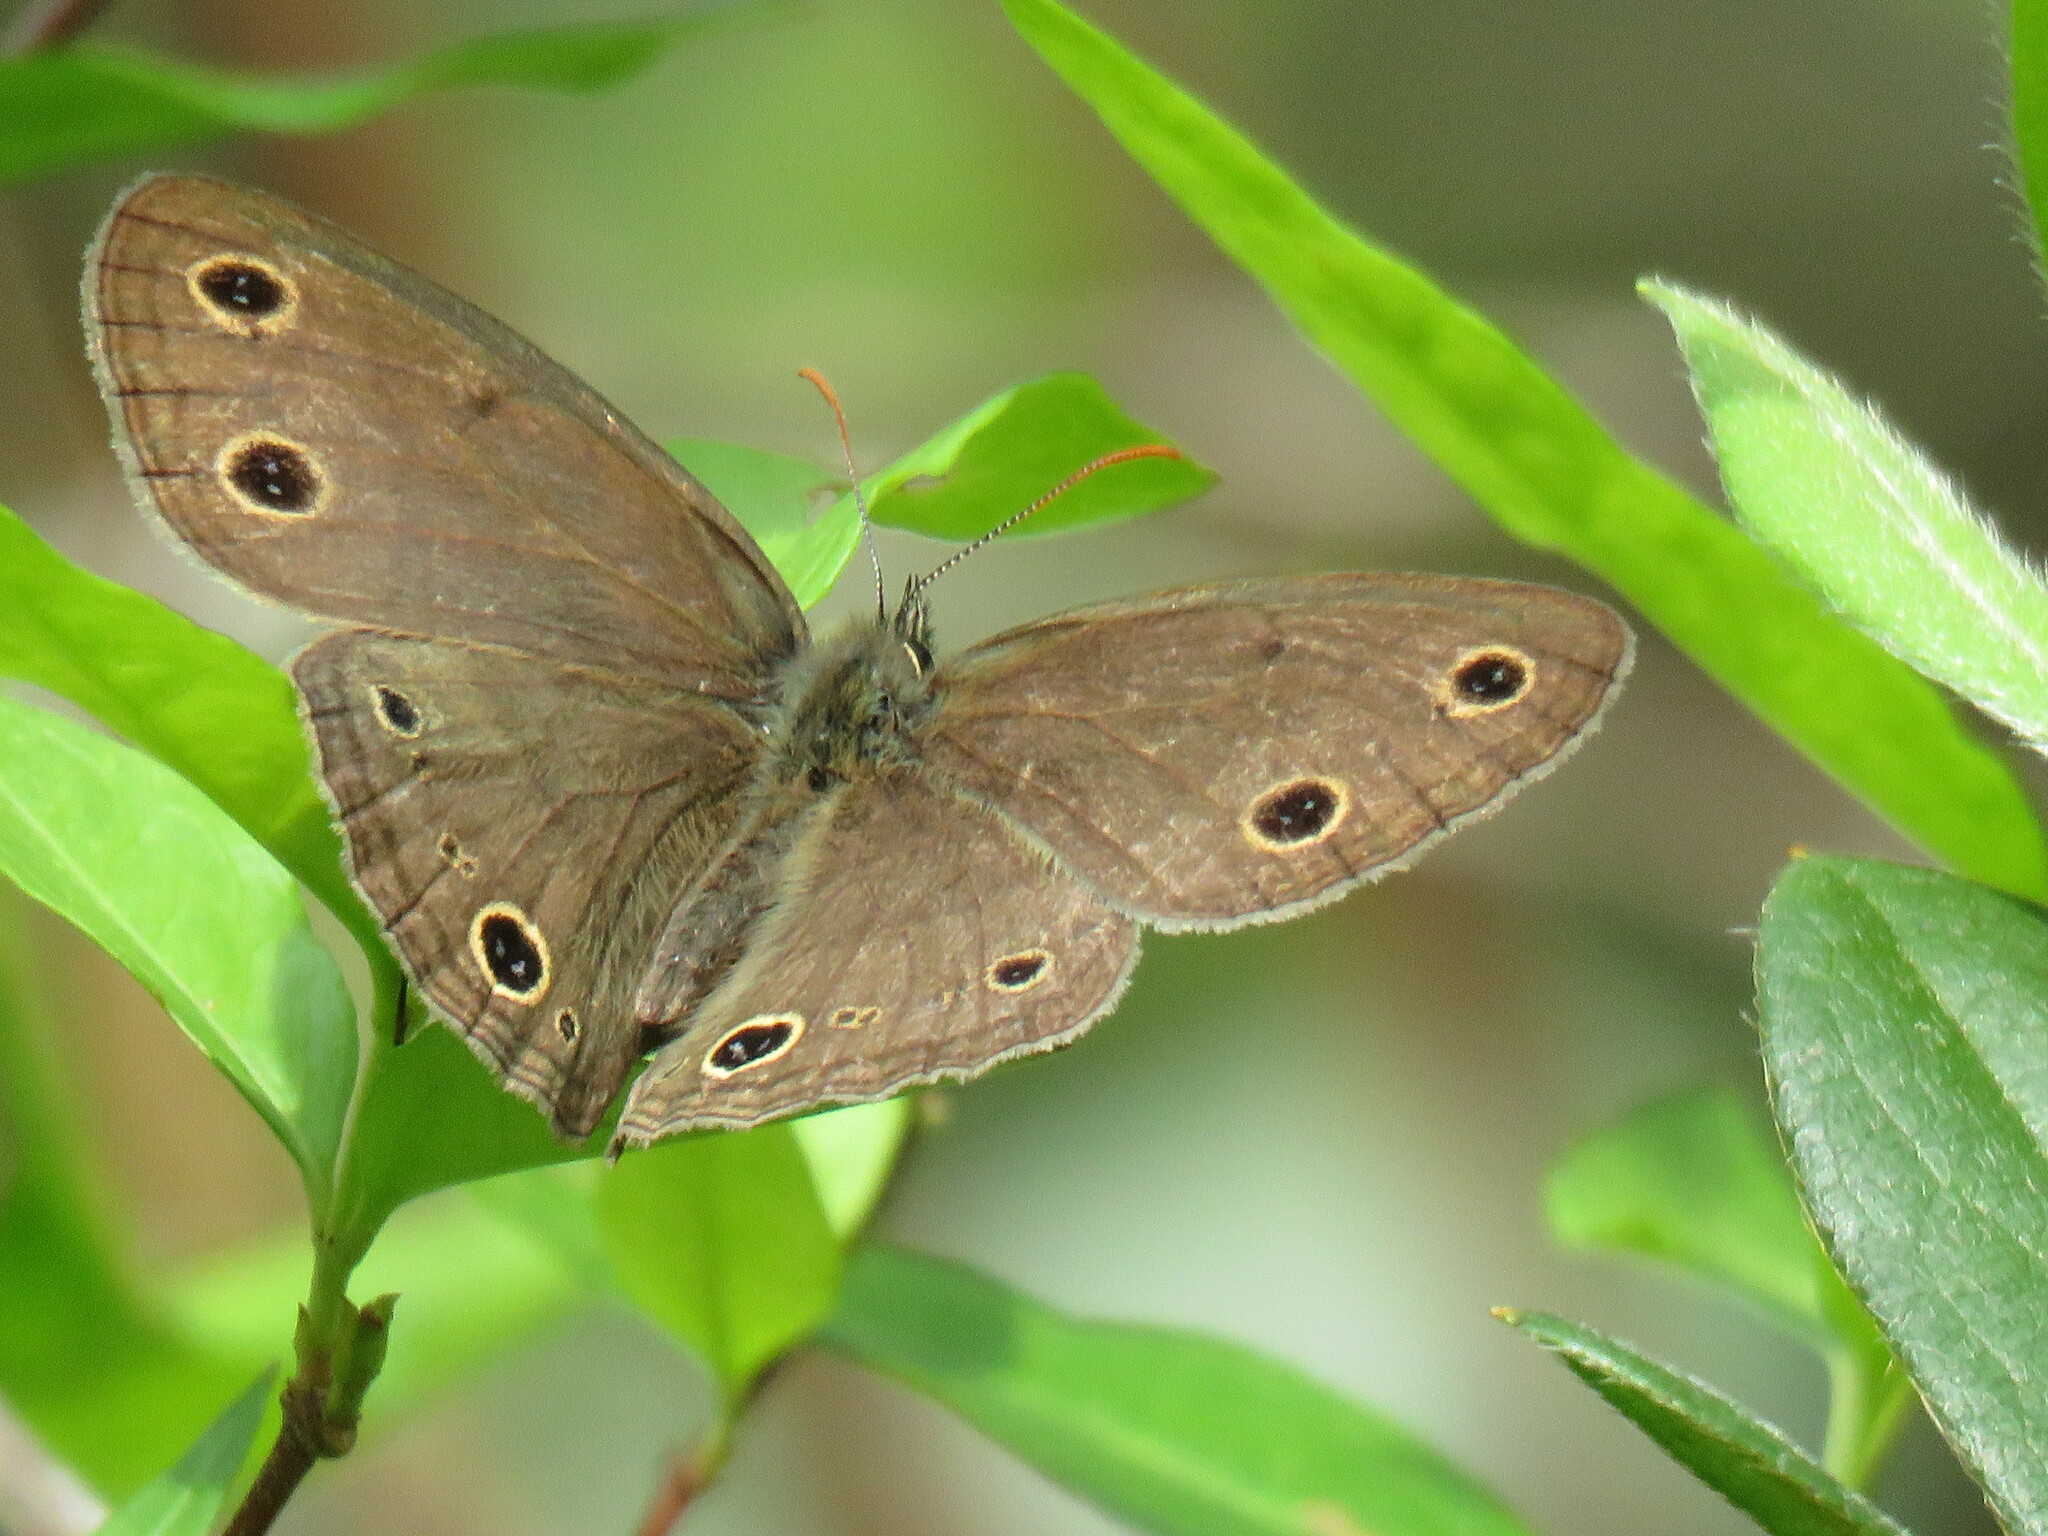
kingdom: Animalia
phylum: Arthropoda
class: Insecta
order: Lepidoptera
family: Nymphalidae
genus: Euptychia
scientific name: Euptychia cymela
